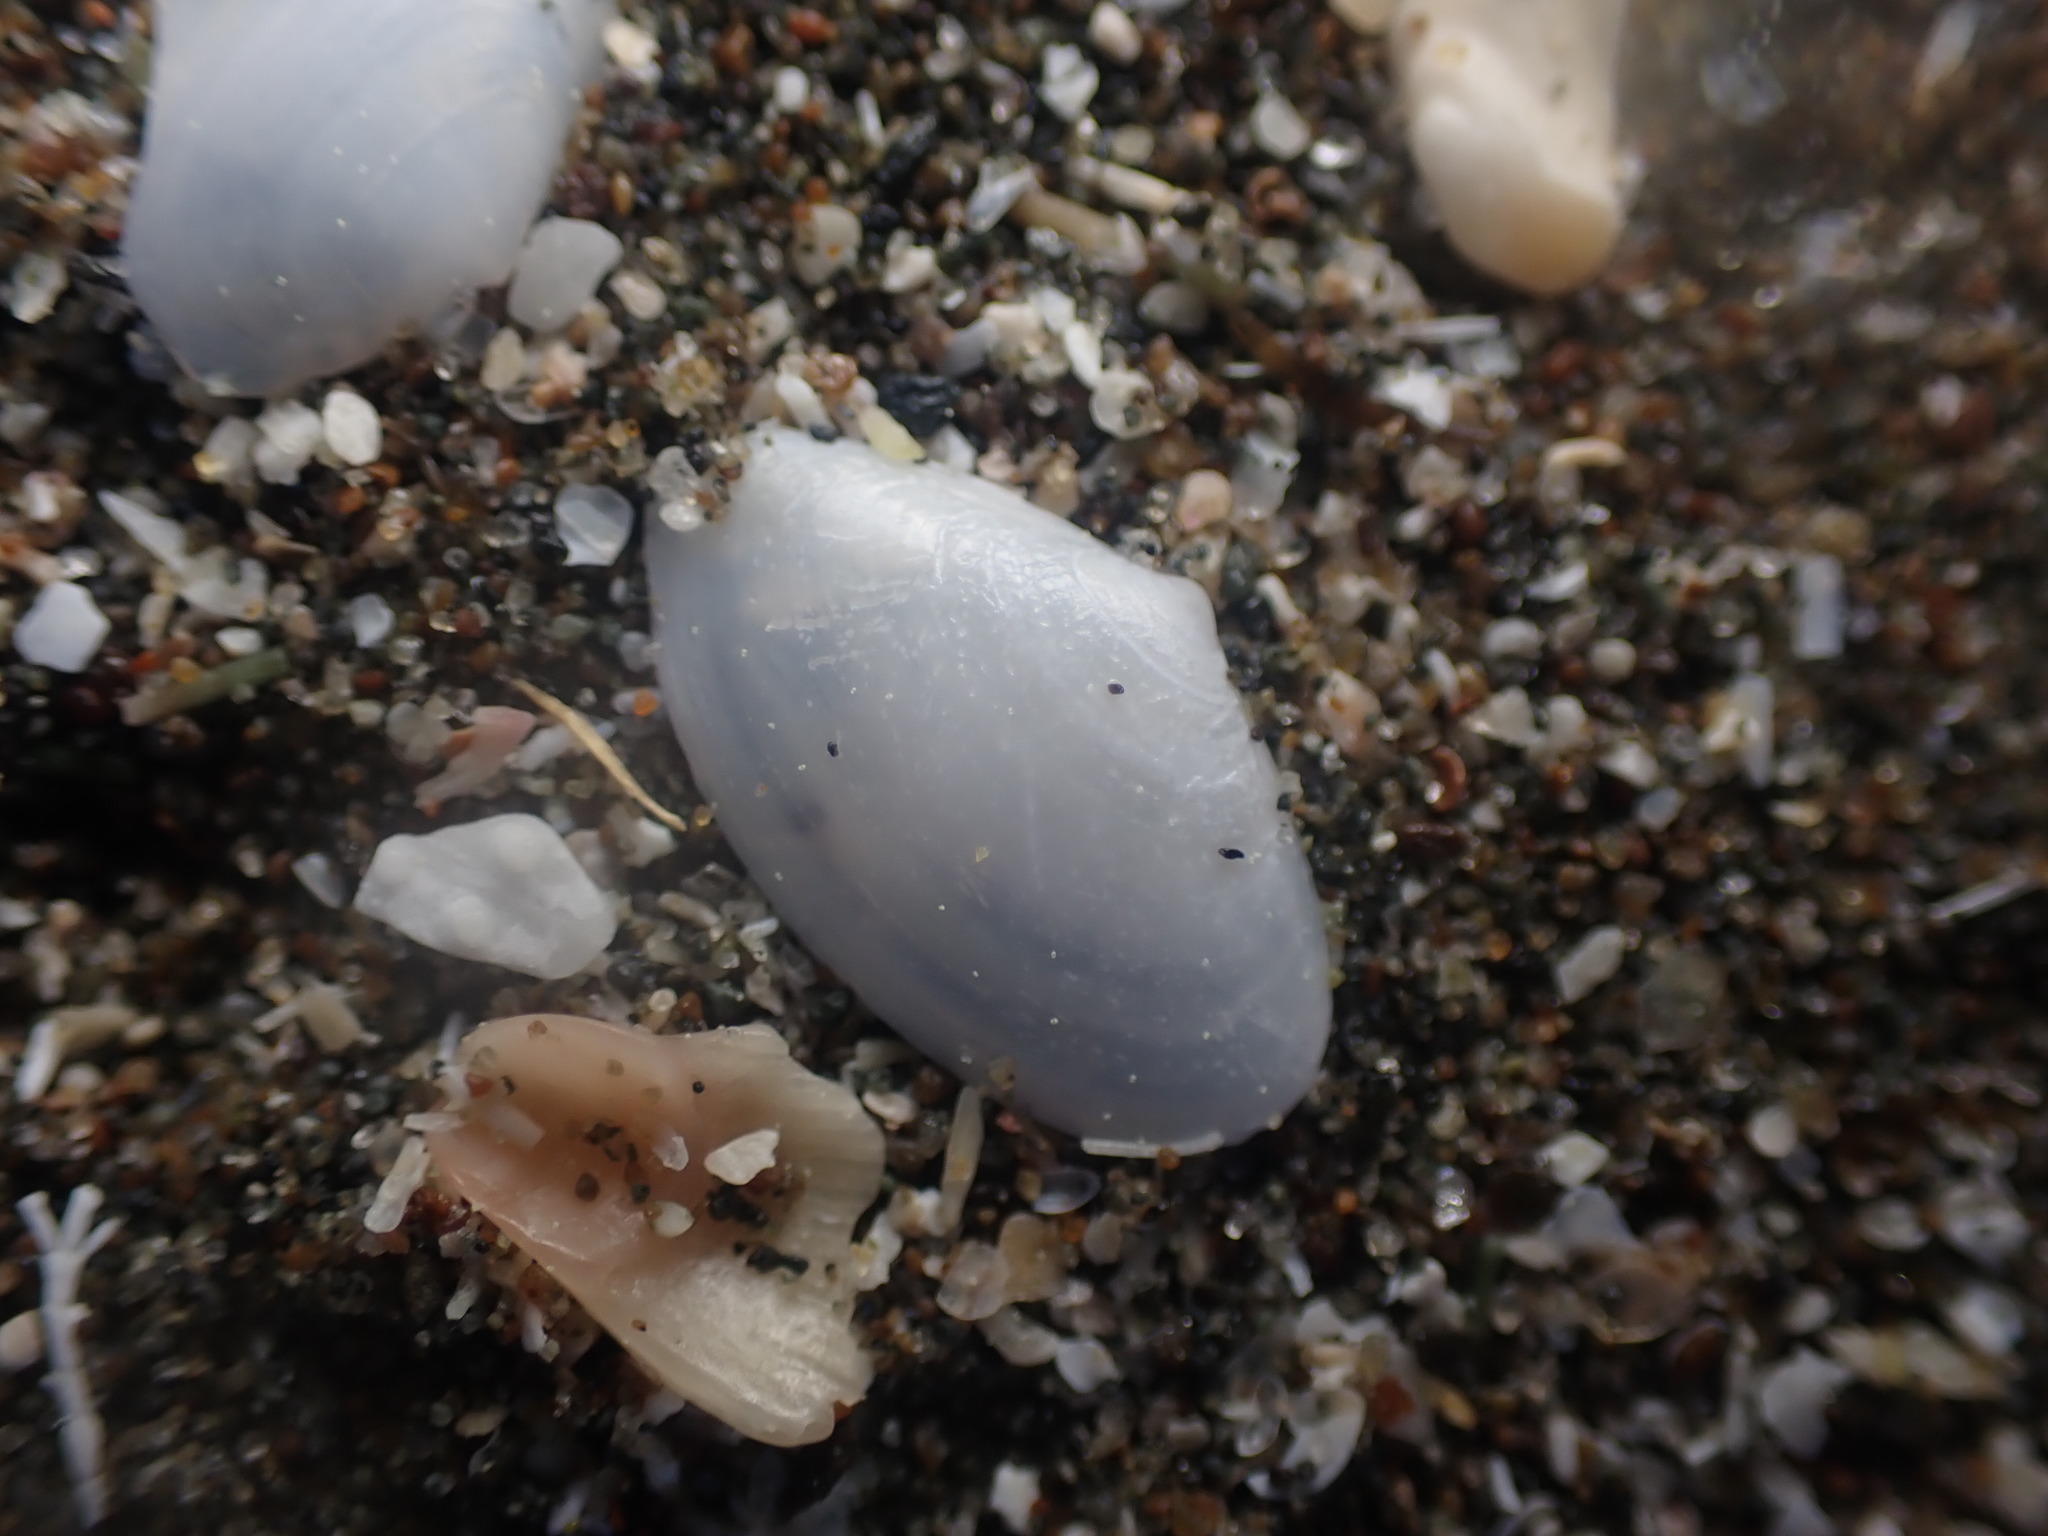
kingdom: Animalia
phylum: Mollusca
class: Bivalvia
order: Venerida
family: Mactridae
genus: Scalpomactra
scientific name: Scalpomactra scalpellum
